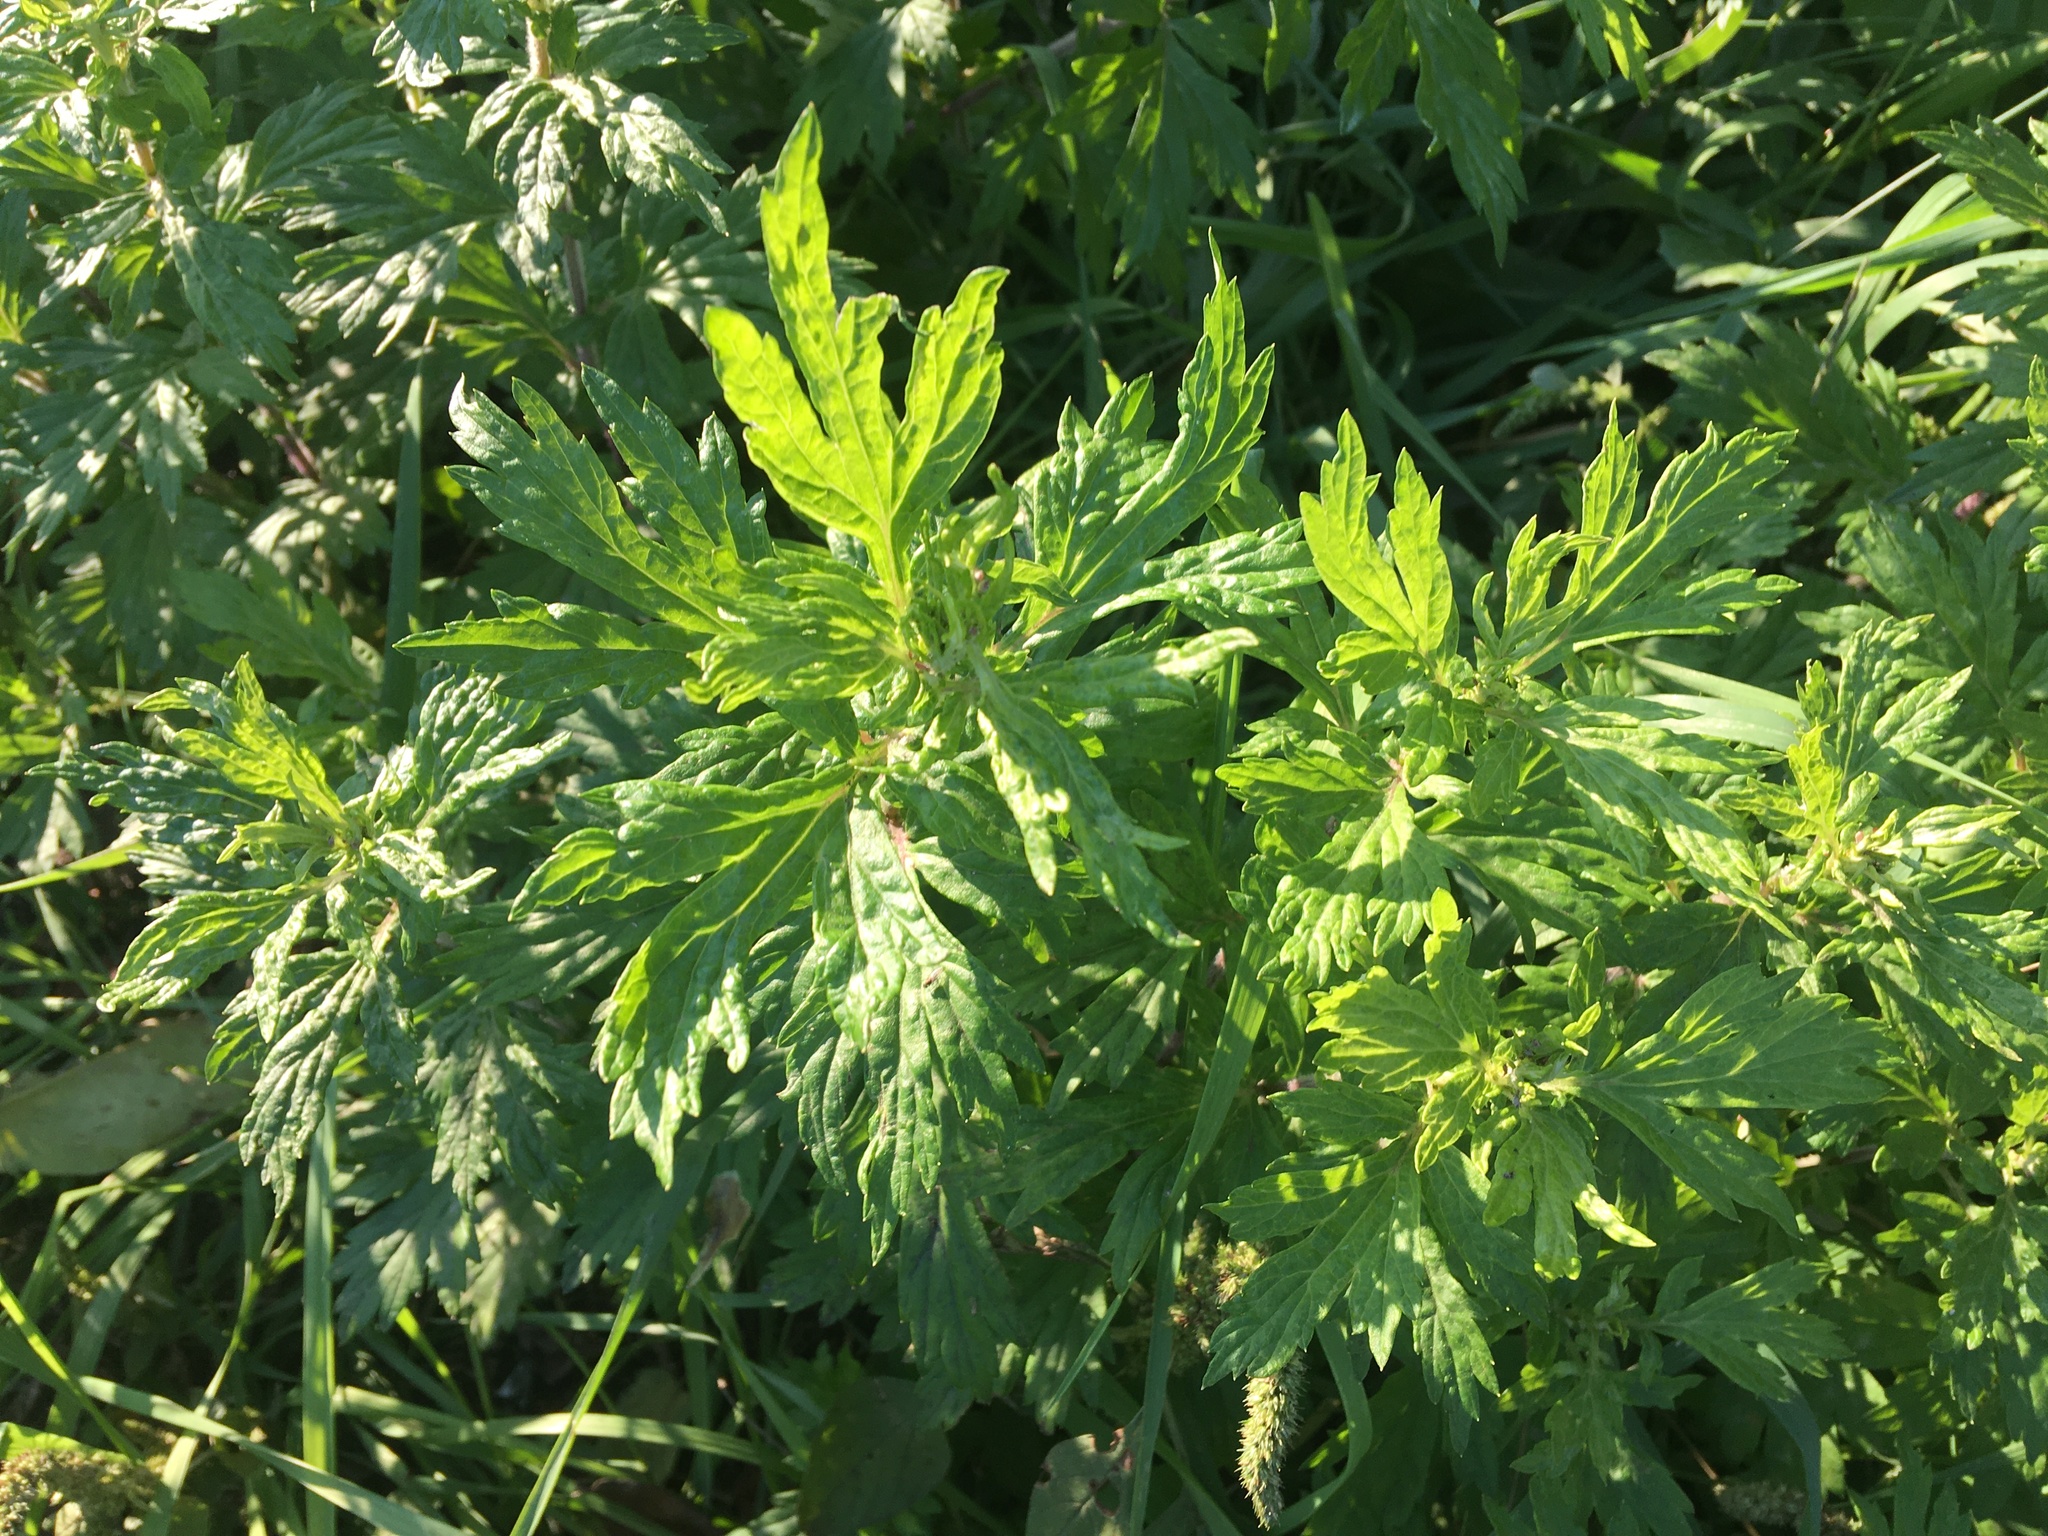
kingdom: Plantae
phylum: Tracheophyta
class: Magnoliopsida
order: Asterales
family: Asteraceae
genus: Artemisia
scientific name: Artemisia vulgaris
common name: Mugwort
